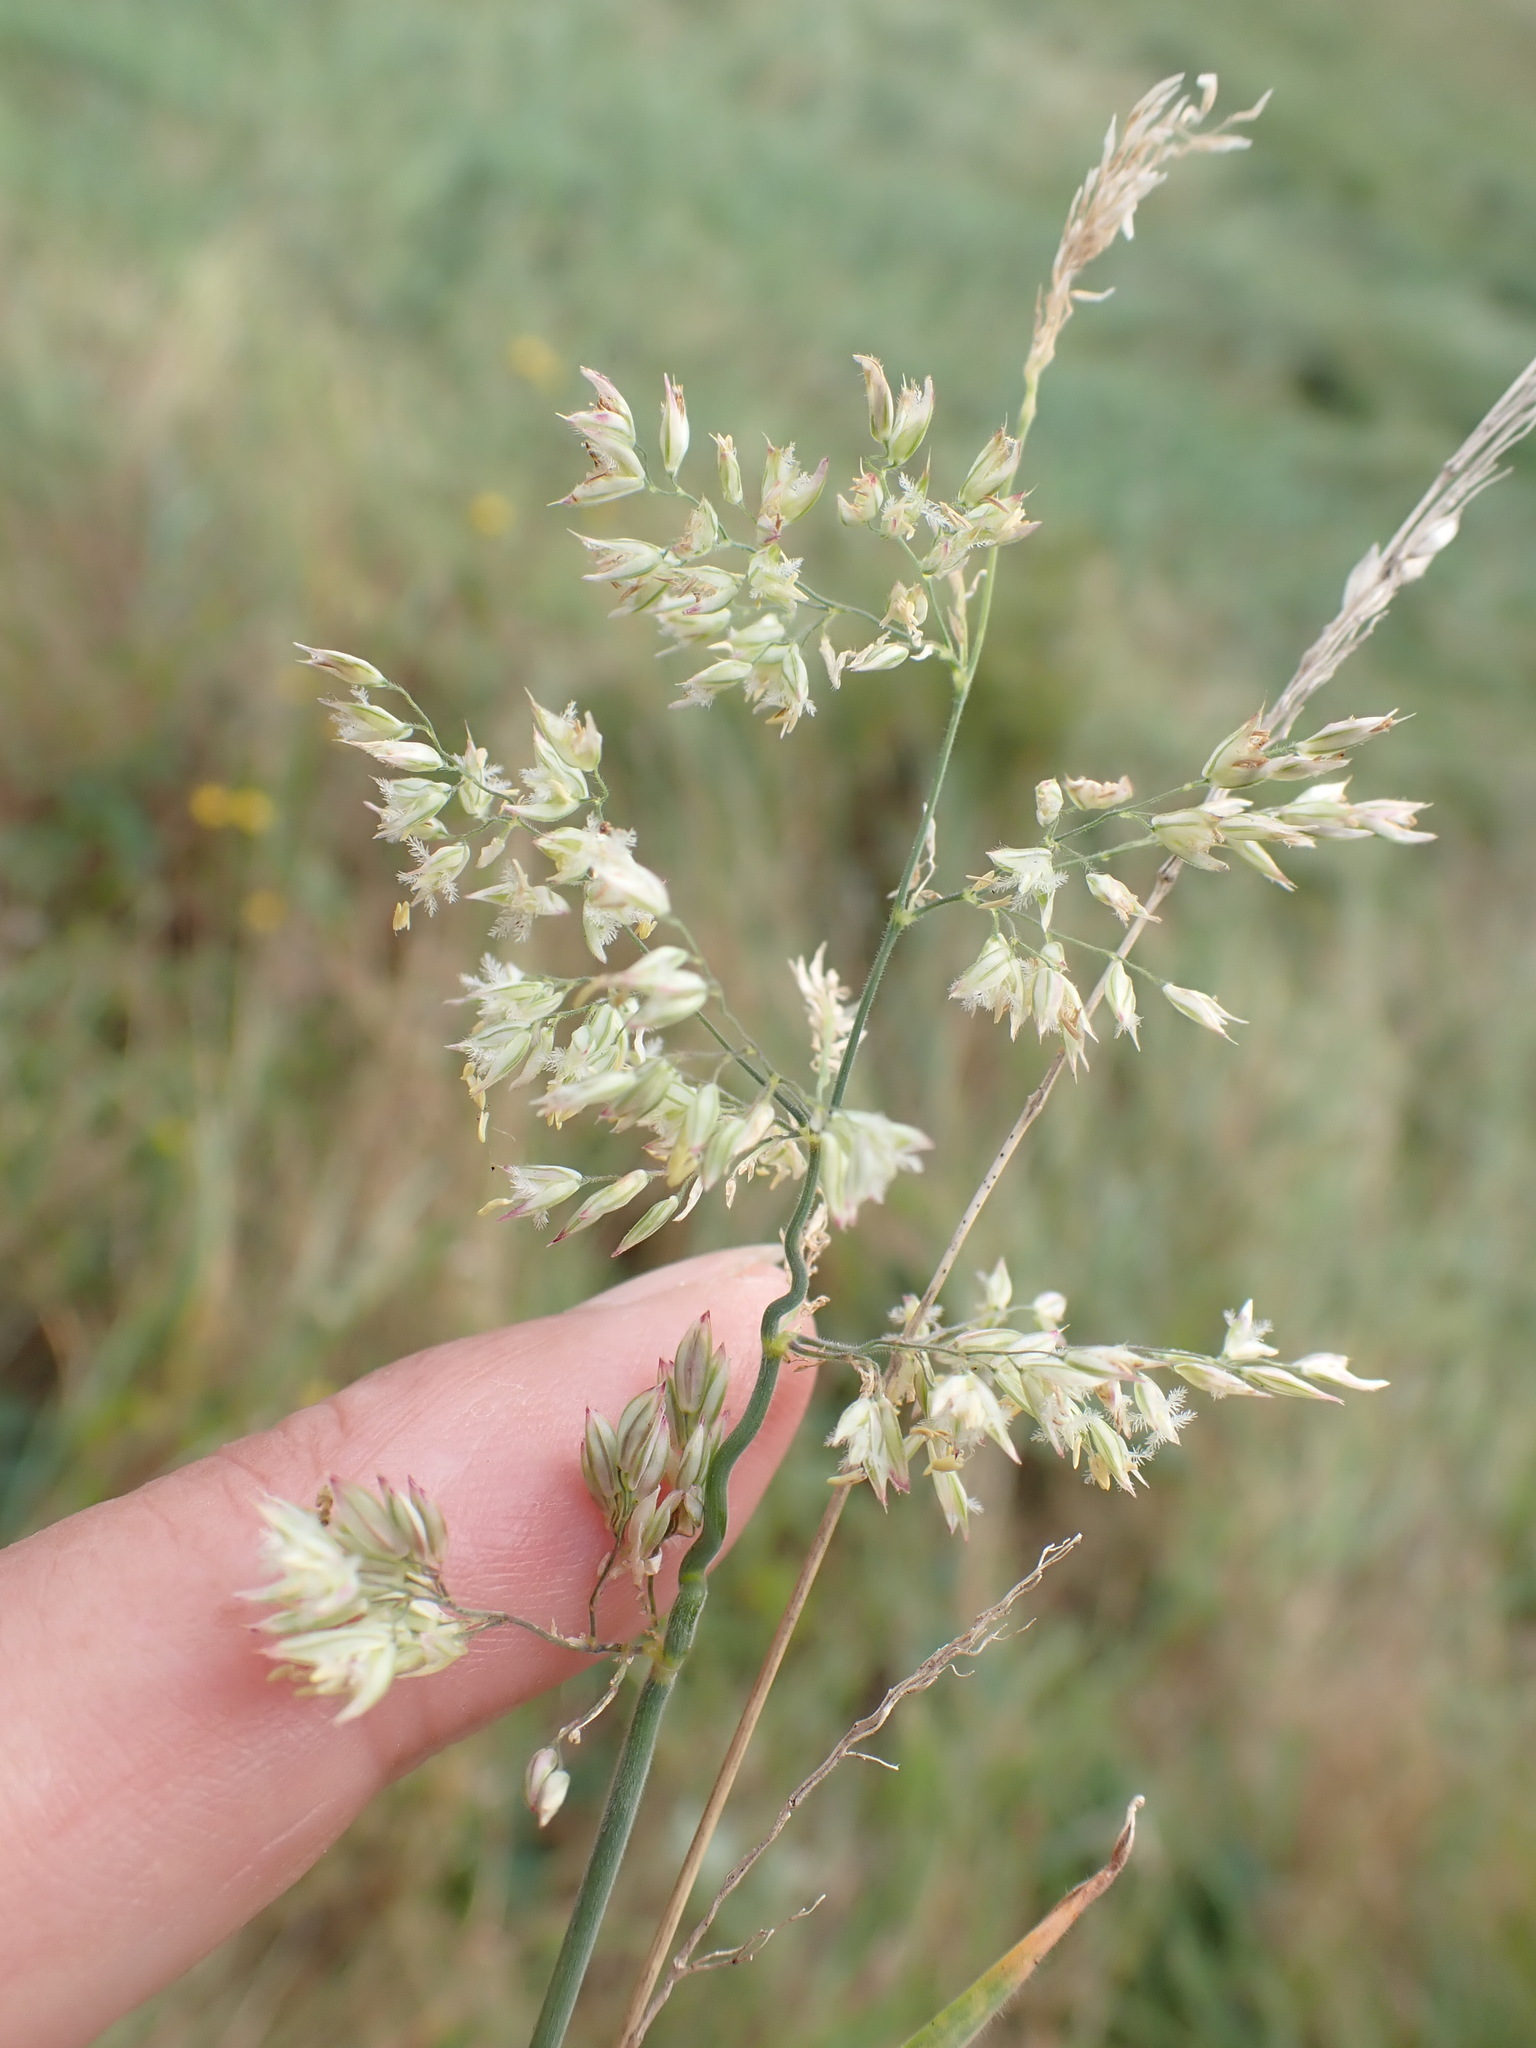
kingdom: Plantae
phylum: Tracheophyta
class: Liliopsida
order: Poales
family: Poaceae
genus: Holcus
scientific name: Holcus lanatus
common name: Yorkshire-fog
